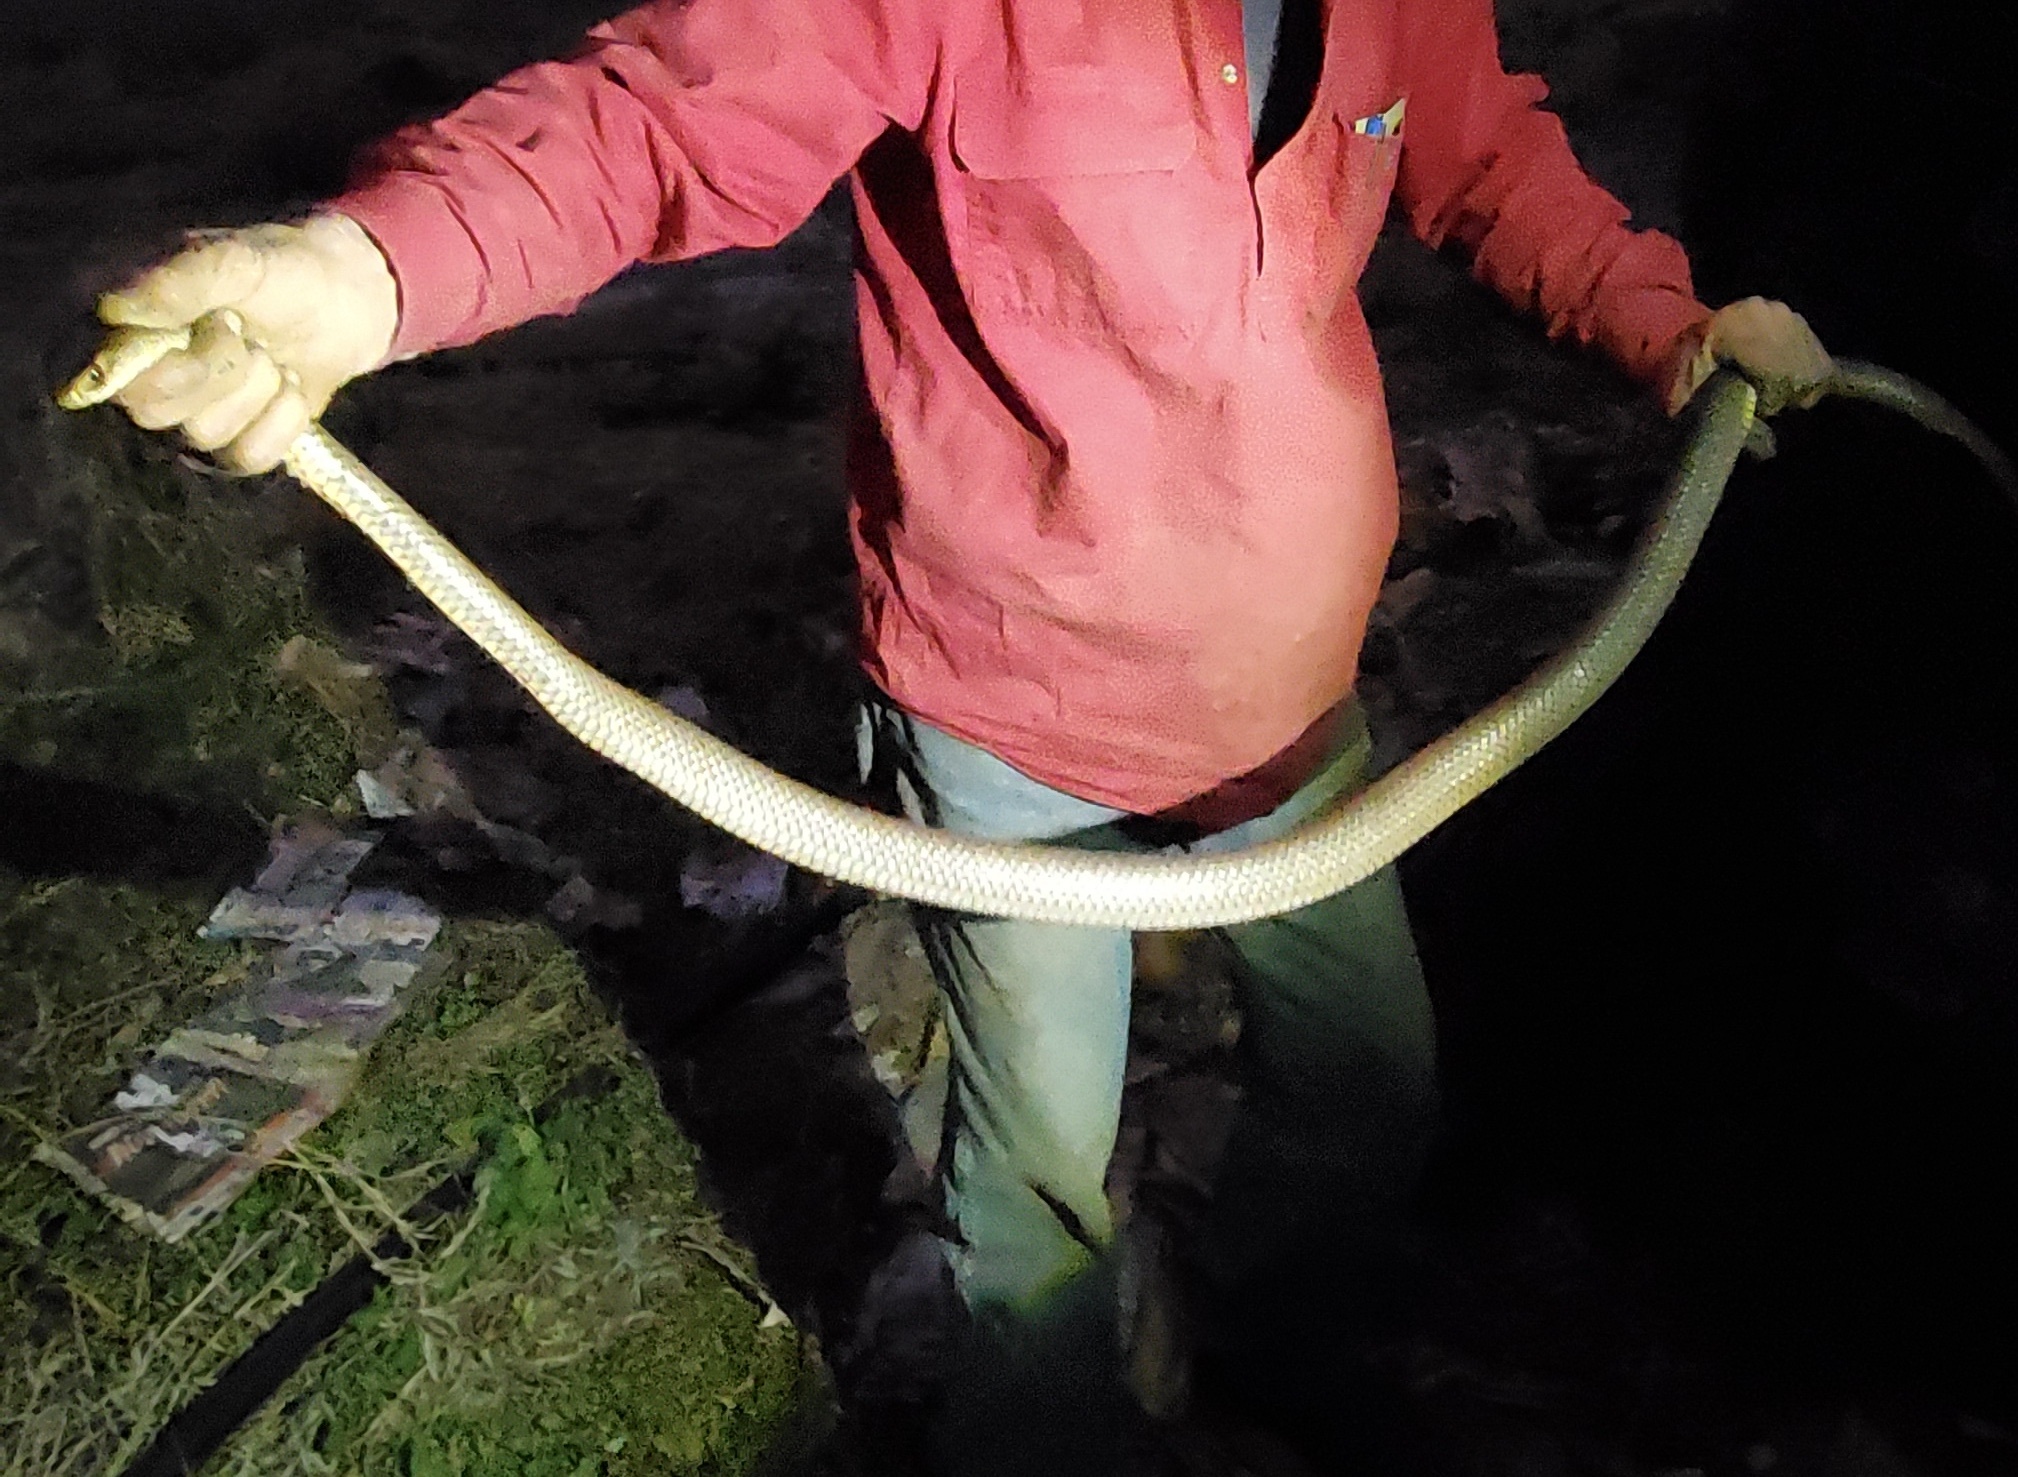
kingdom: Animalia
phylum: Chordata
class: Squamata
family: Elapidae
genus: Pseudonaja
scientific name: Pseudonaja textilis
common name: Eastern brown snake
